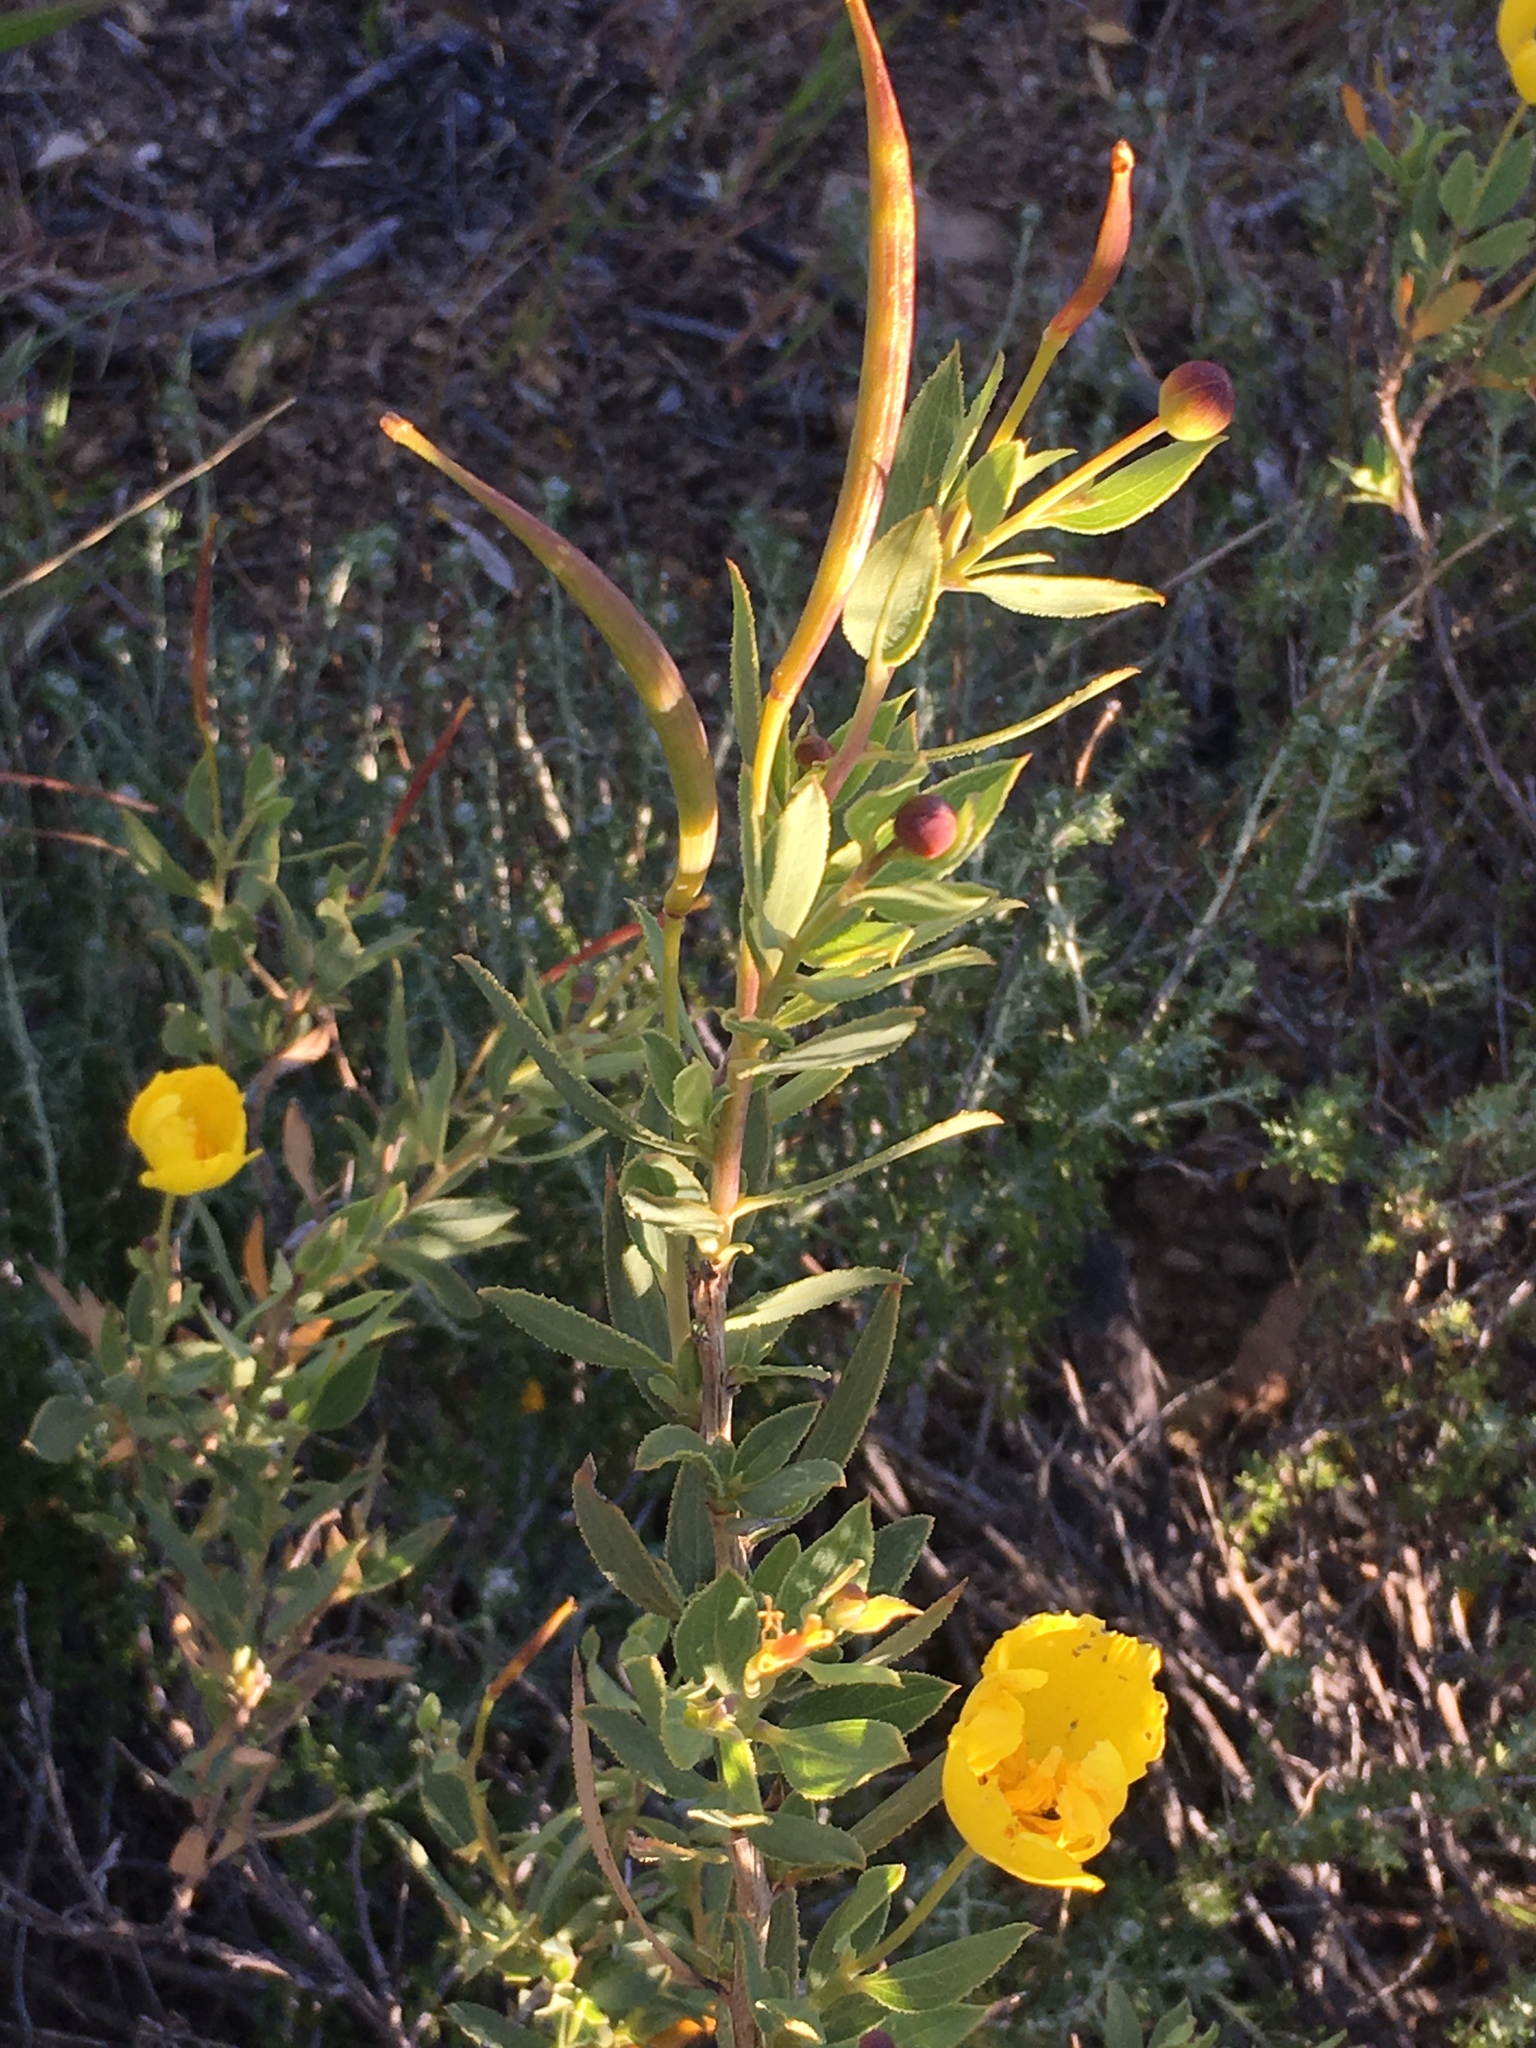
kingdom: Plantae
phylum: Tracheophyta
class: Magnoliopsida
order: Ranunculales
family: Papaveraceae
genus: Dendromecon
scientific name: Dendromecon rigida
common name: Tree poppy
